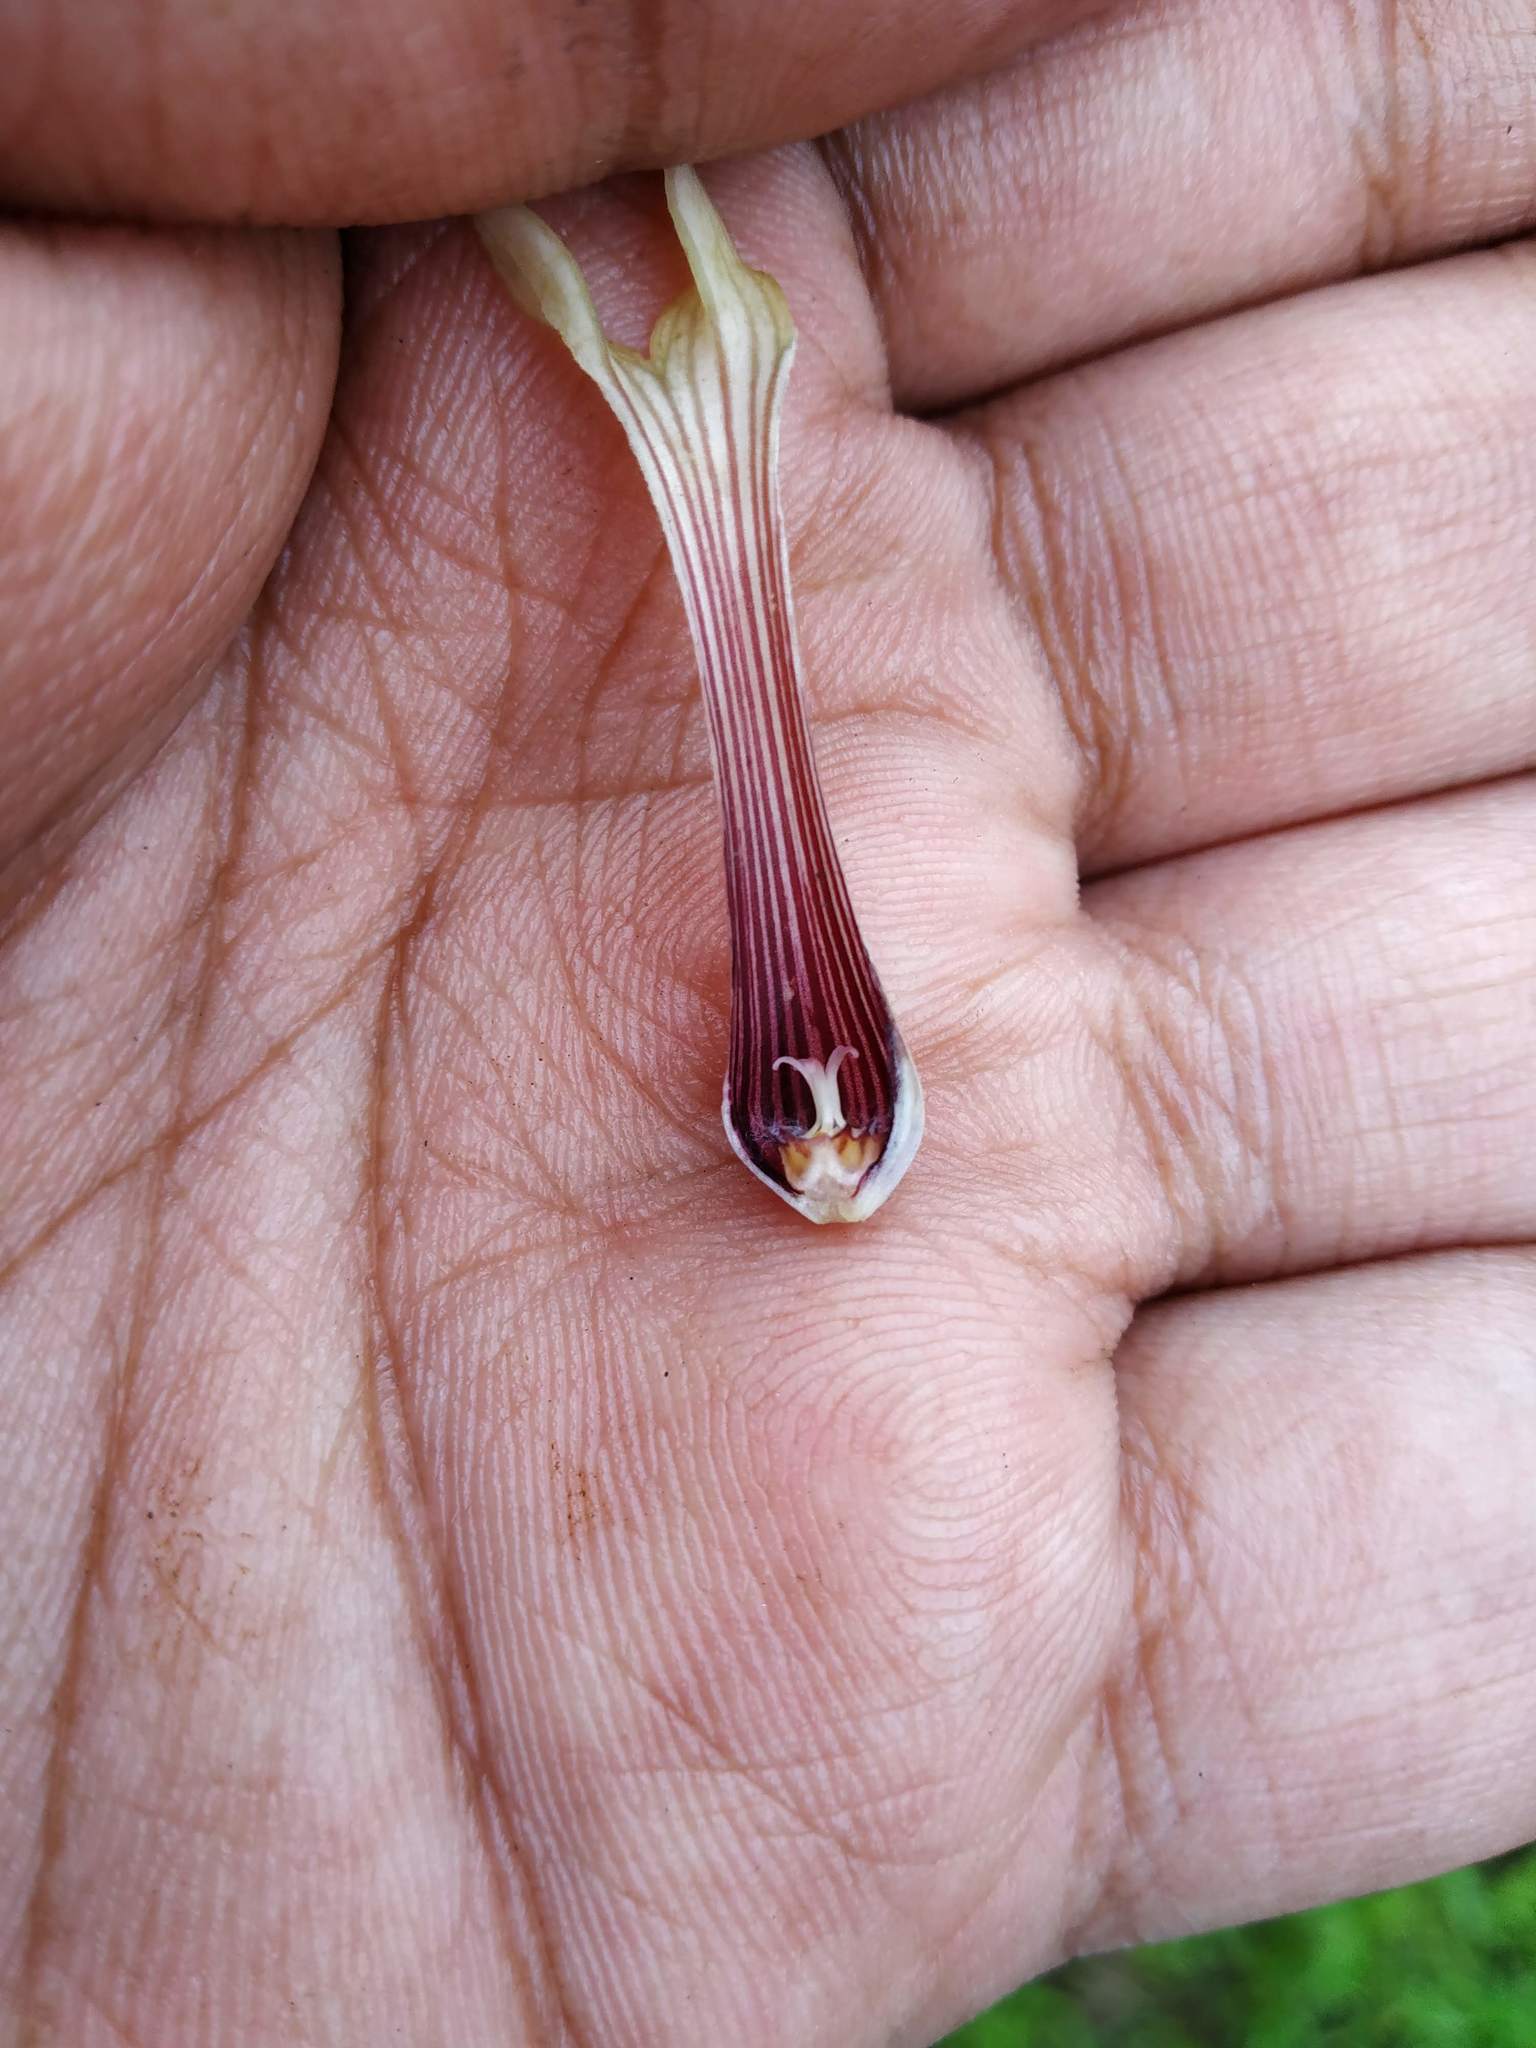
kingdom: Plantae
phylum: Tracheophyta
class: Magnoliopsida
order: Gentianales
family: Apocynaceae
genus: Ceropegia
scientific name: Ceropegia attenuata
